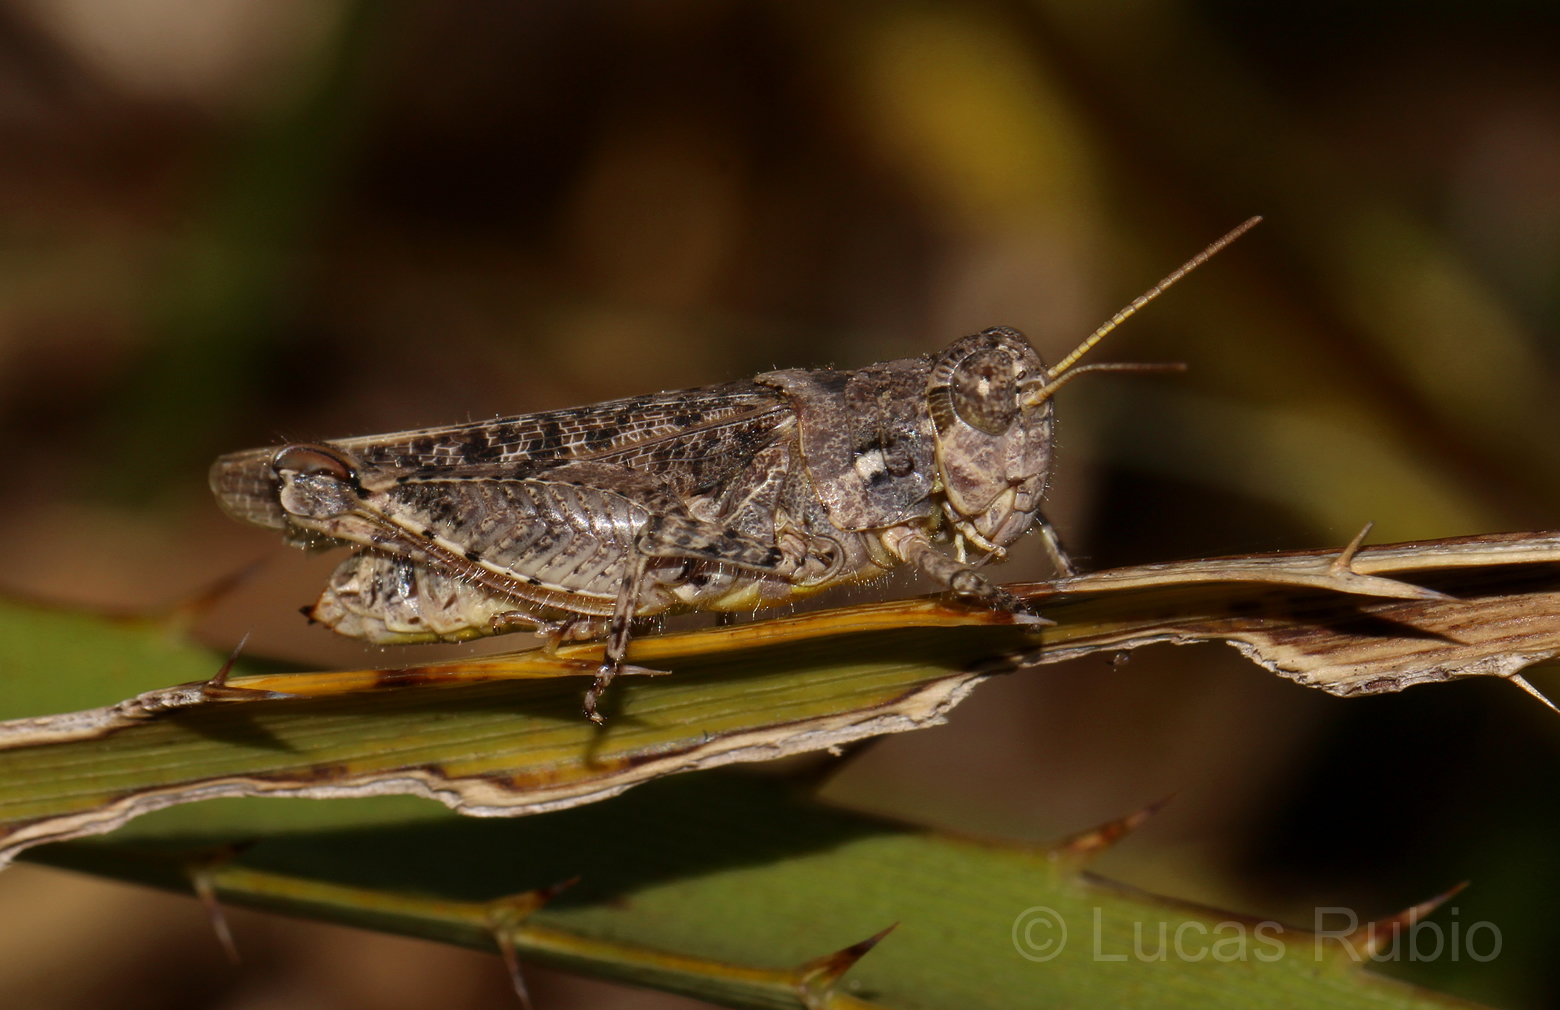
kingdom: Animalia
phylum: Arthropoda
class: Insecta
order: Orthoptera
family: Acrididae
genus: Dichroplus
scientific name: Dichroplus conspersus
